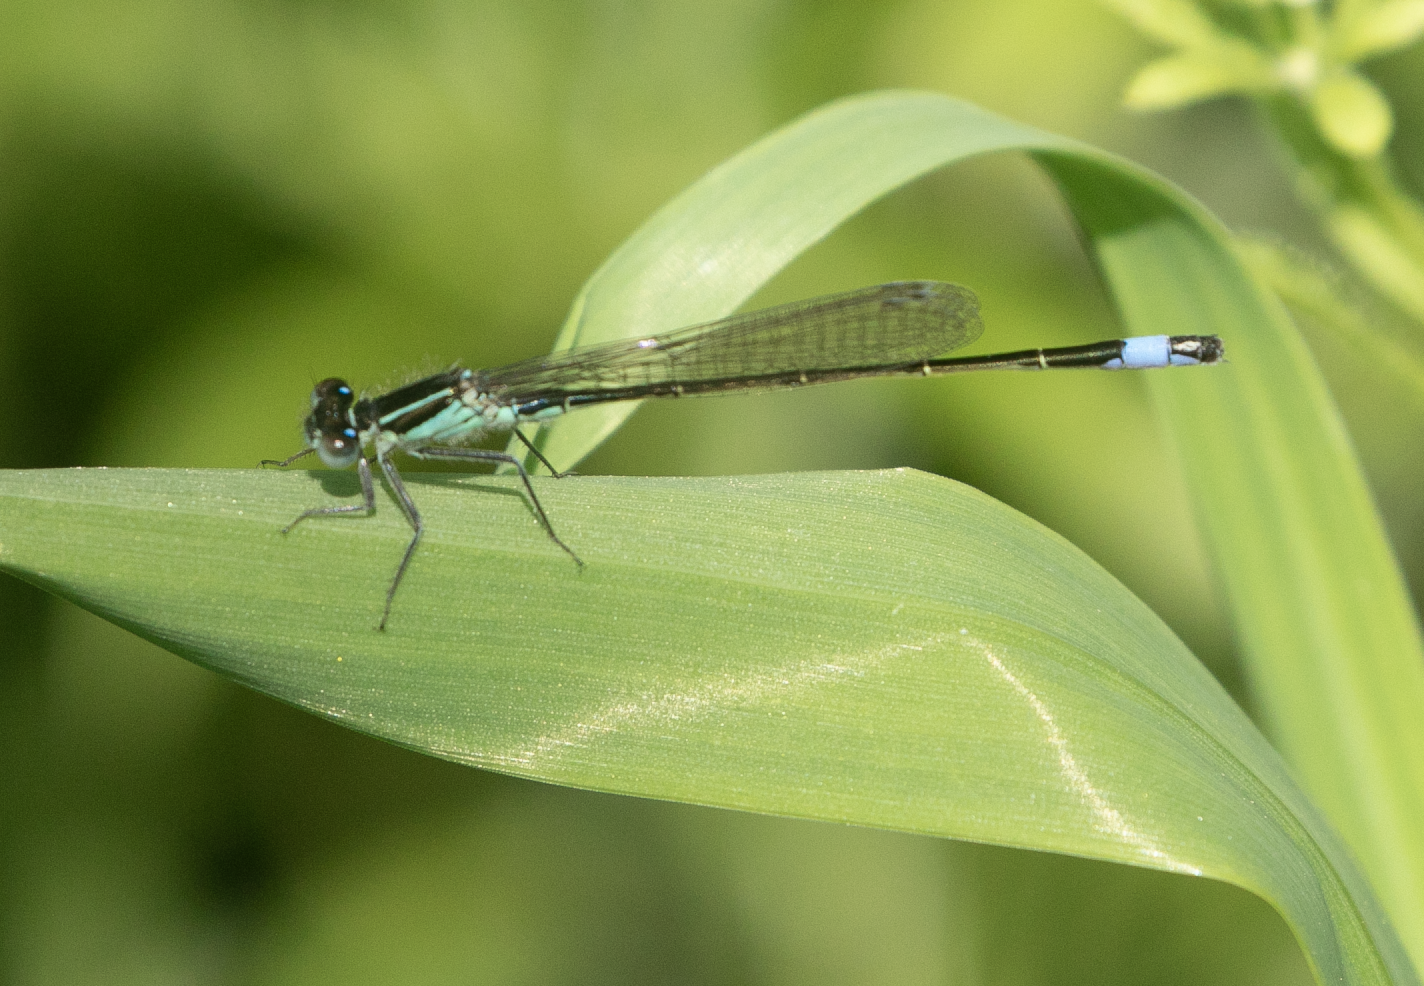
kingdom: Animalia
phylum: Arthropoda
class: Insecta
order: Odonata
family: Coenagrionidae
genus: Ischnura
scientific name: Ischnura elegans
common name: Blue-tailed damselfly
